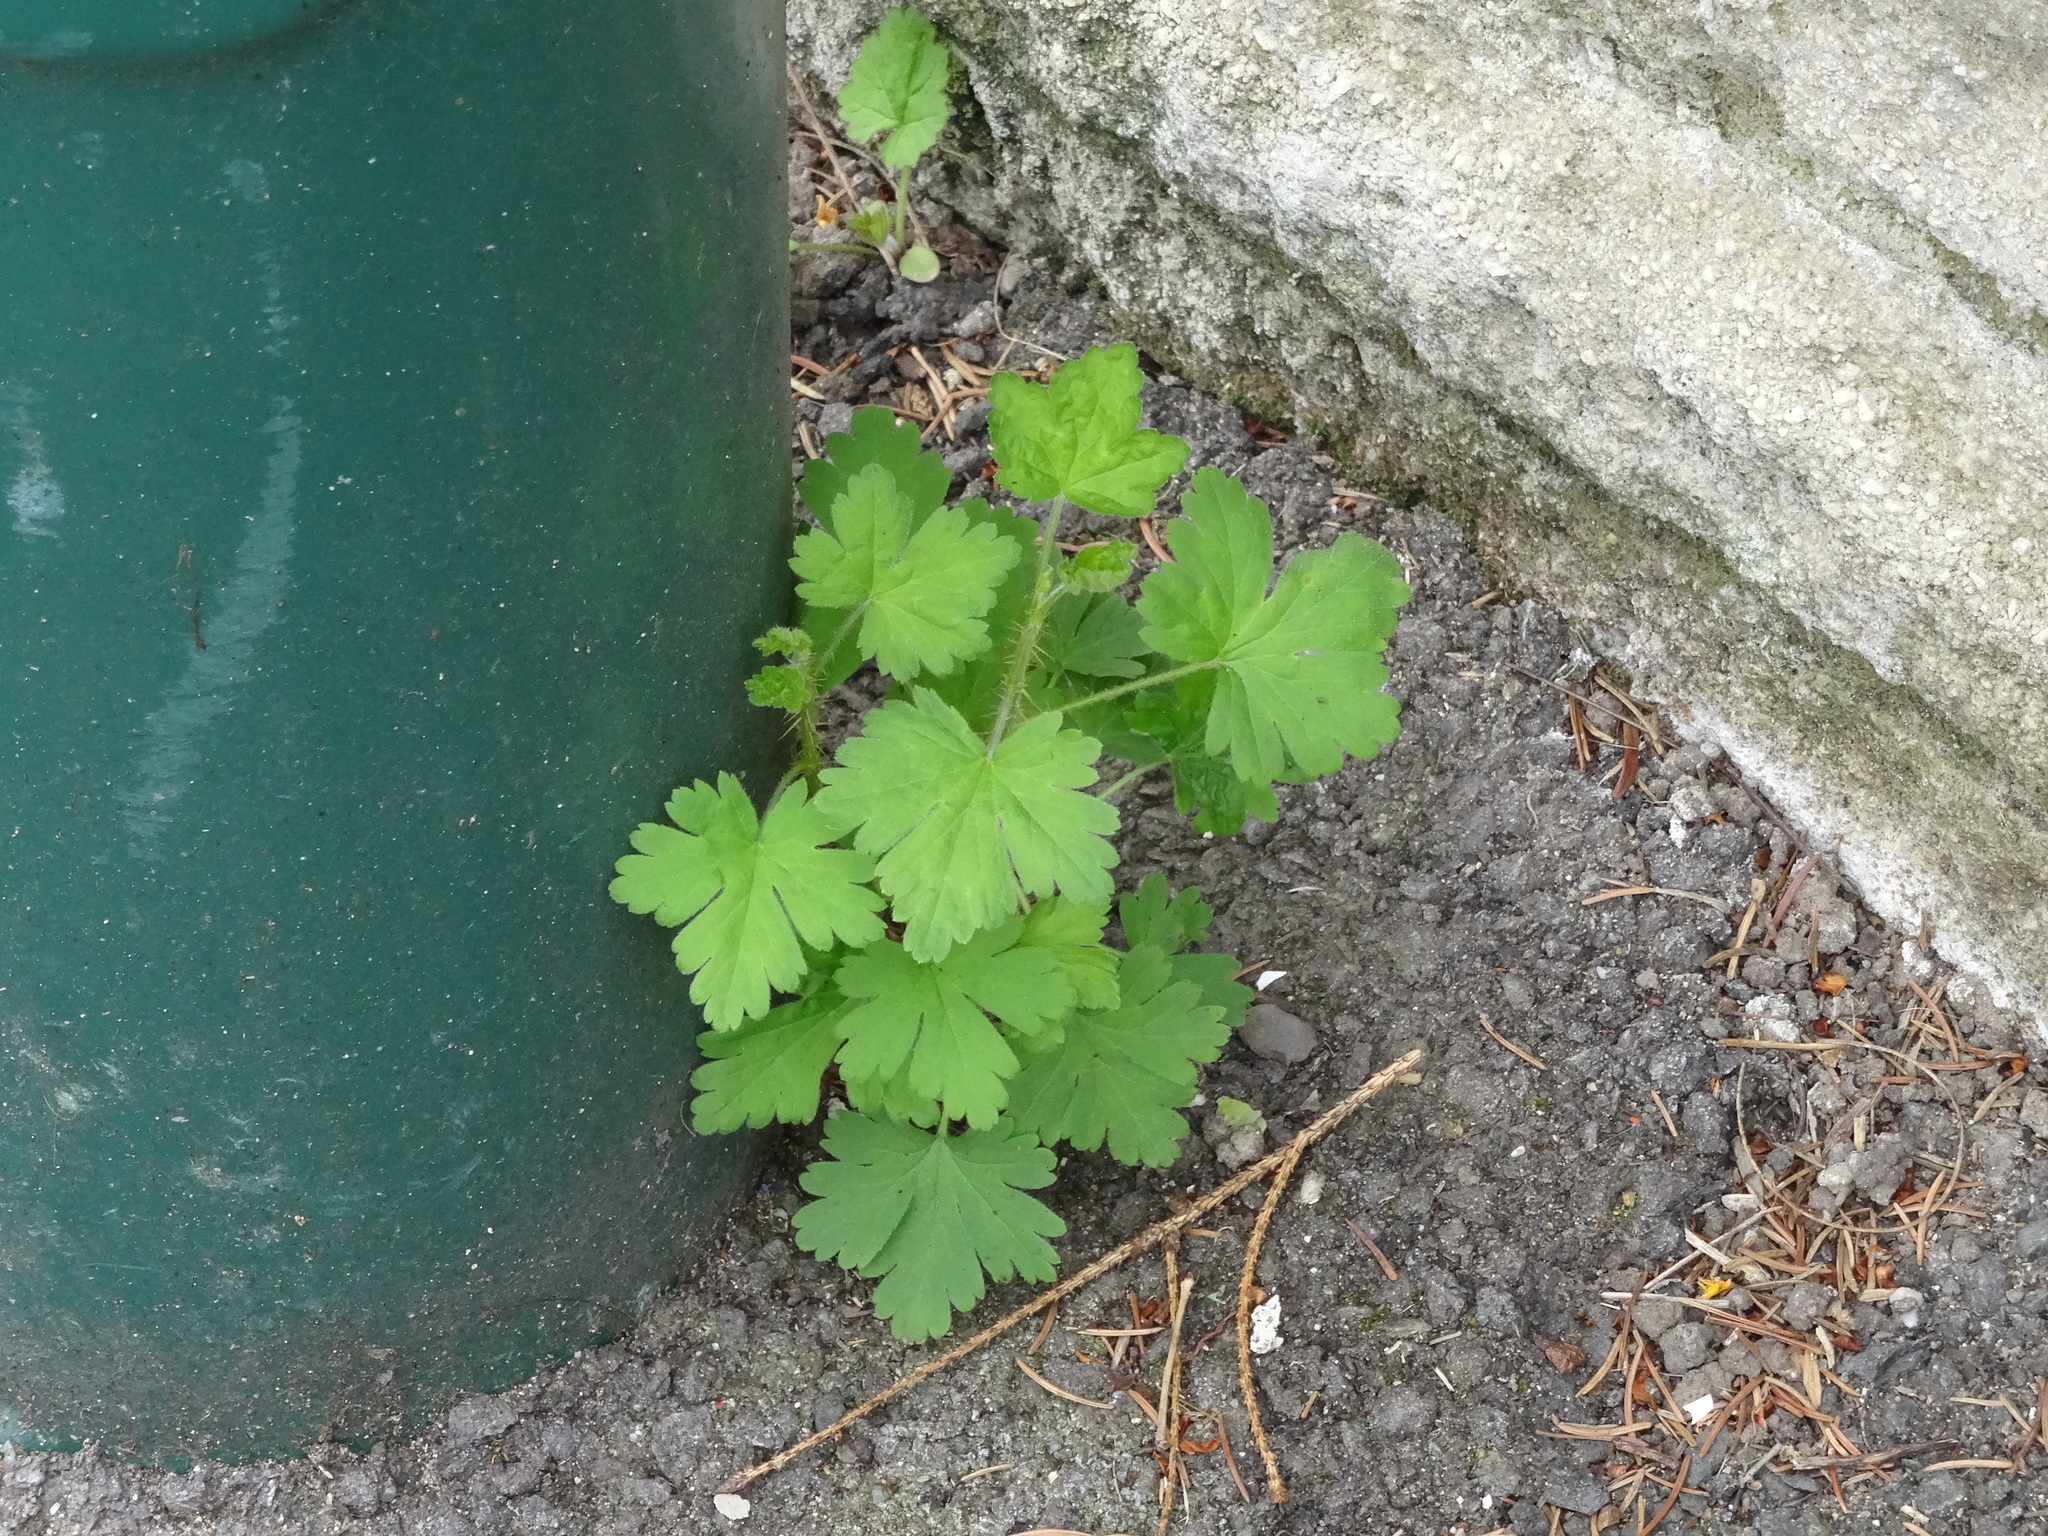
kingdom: Plantae
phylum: Tracheophyta
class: Magnoliopsida
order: Saxifragales
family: Grossulariaceae
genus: Ribes
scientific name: Ribes uva-crispa
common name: Gooseberry
